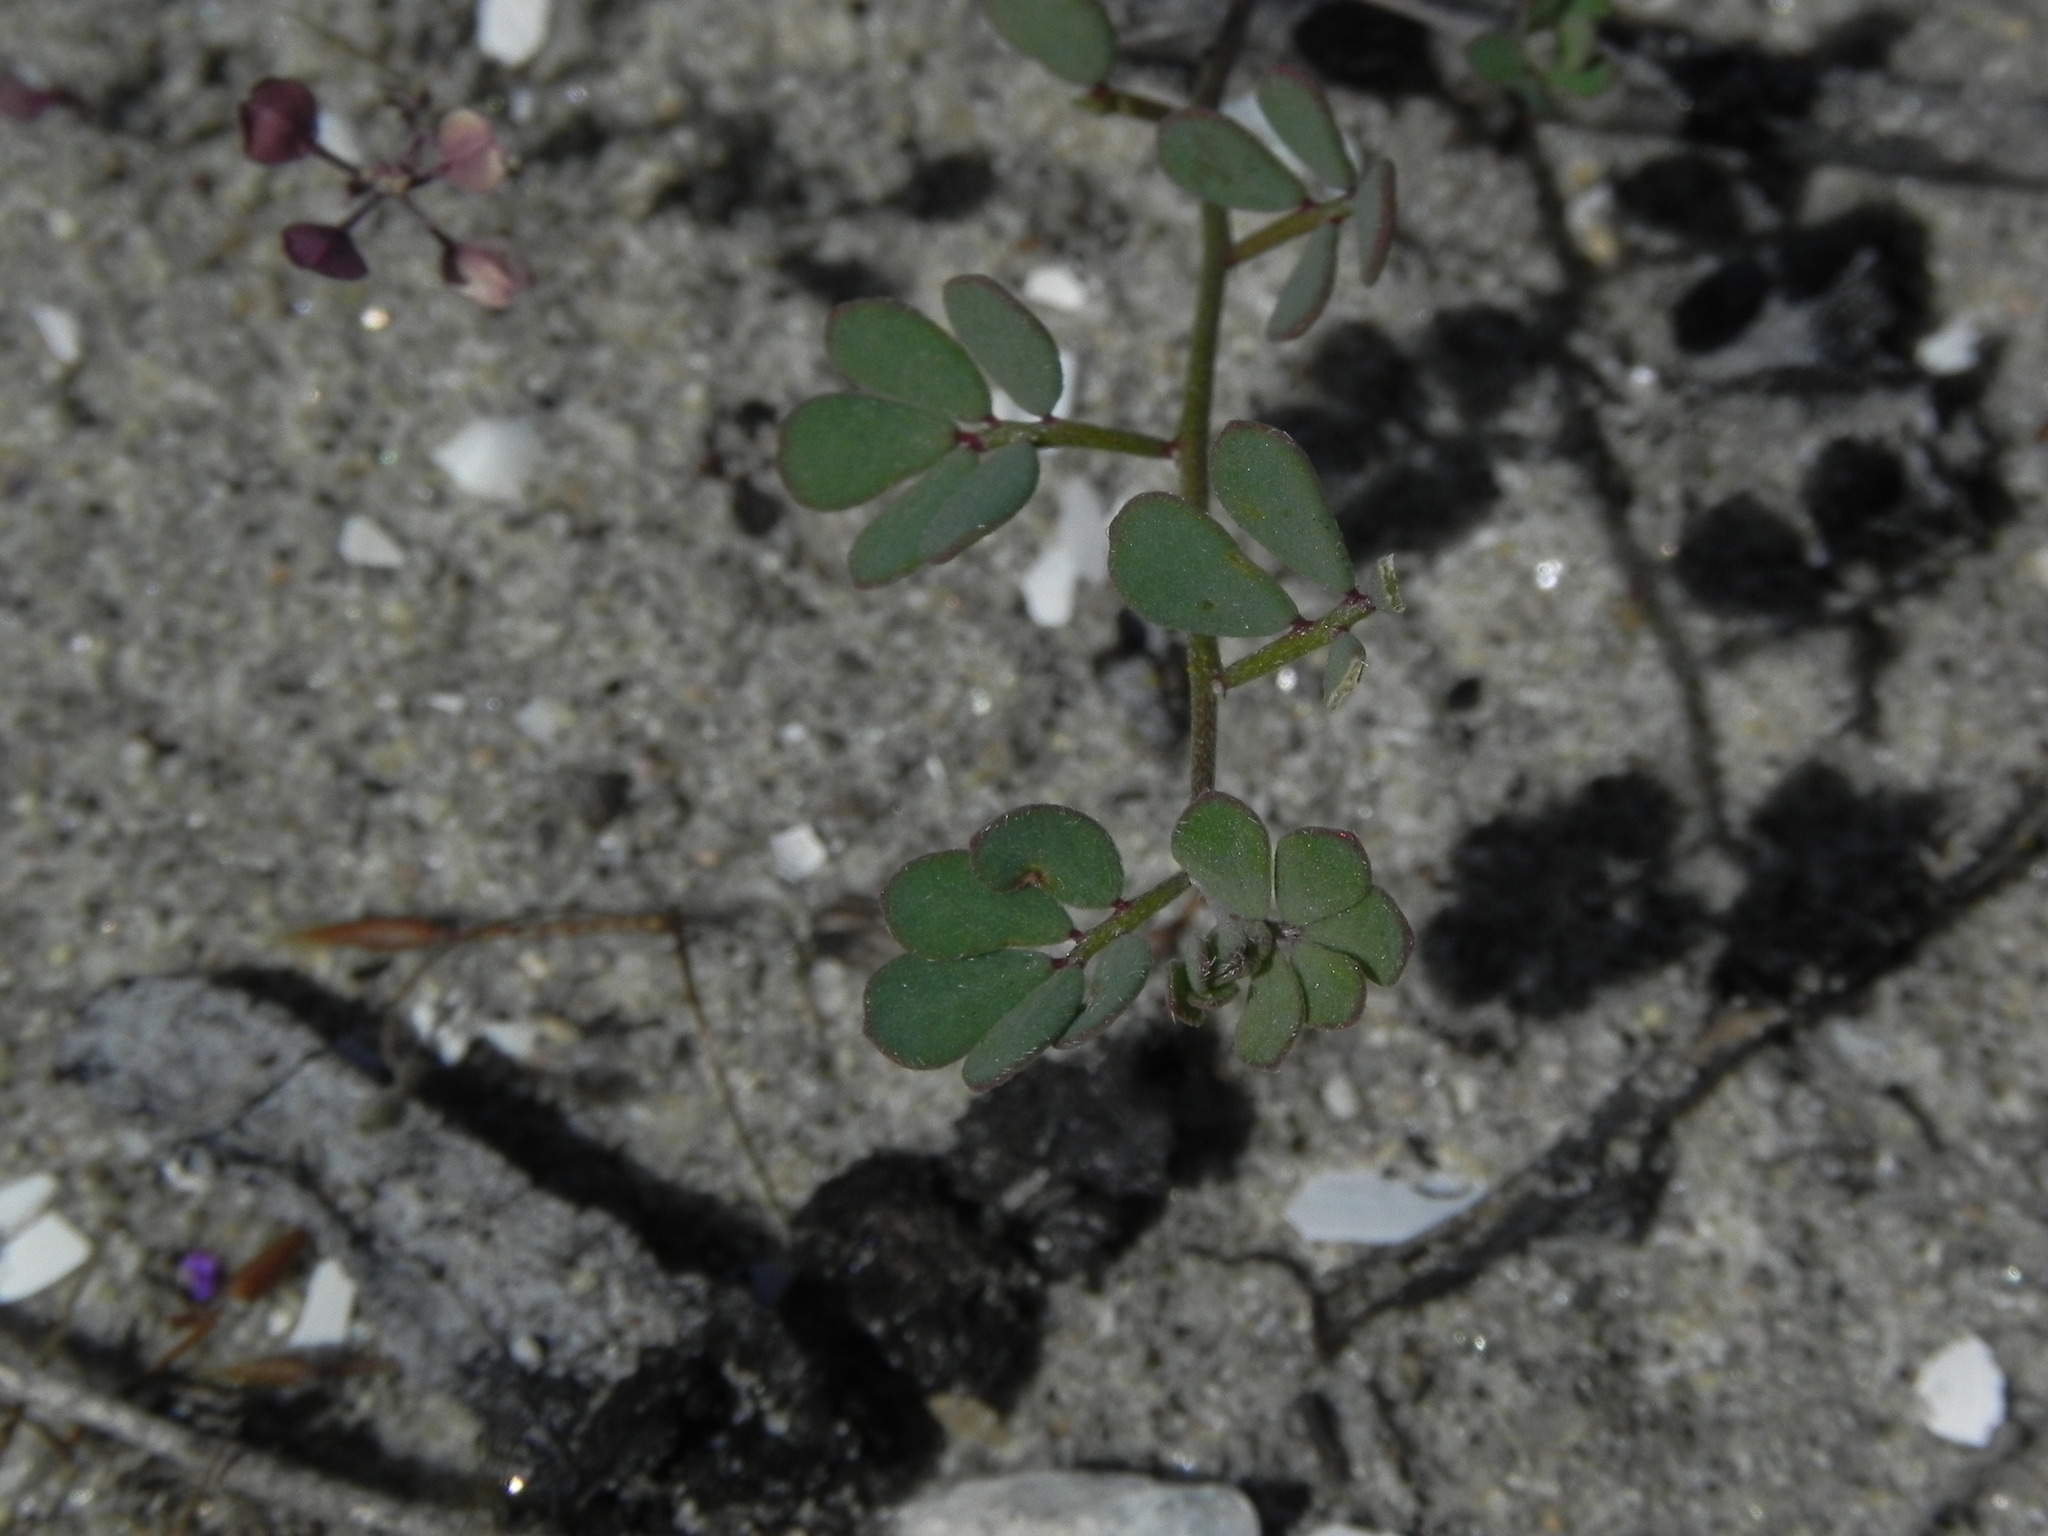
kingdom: Plantae
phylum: Tracheophyta
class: Magnoliopsida
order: Fabales
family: Fabaceae
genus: Acmispon
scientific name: Acmispon prostratus
